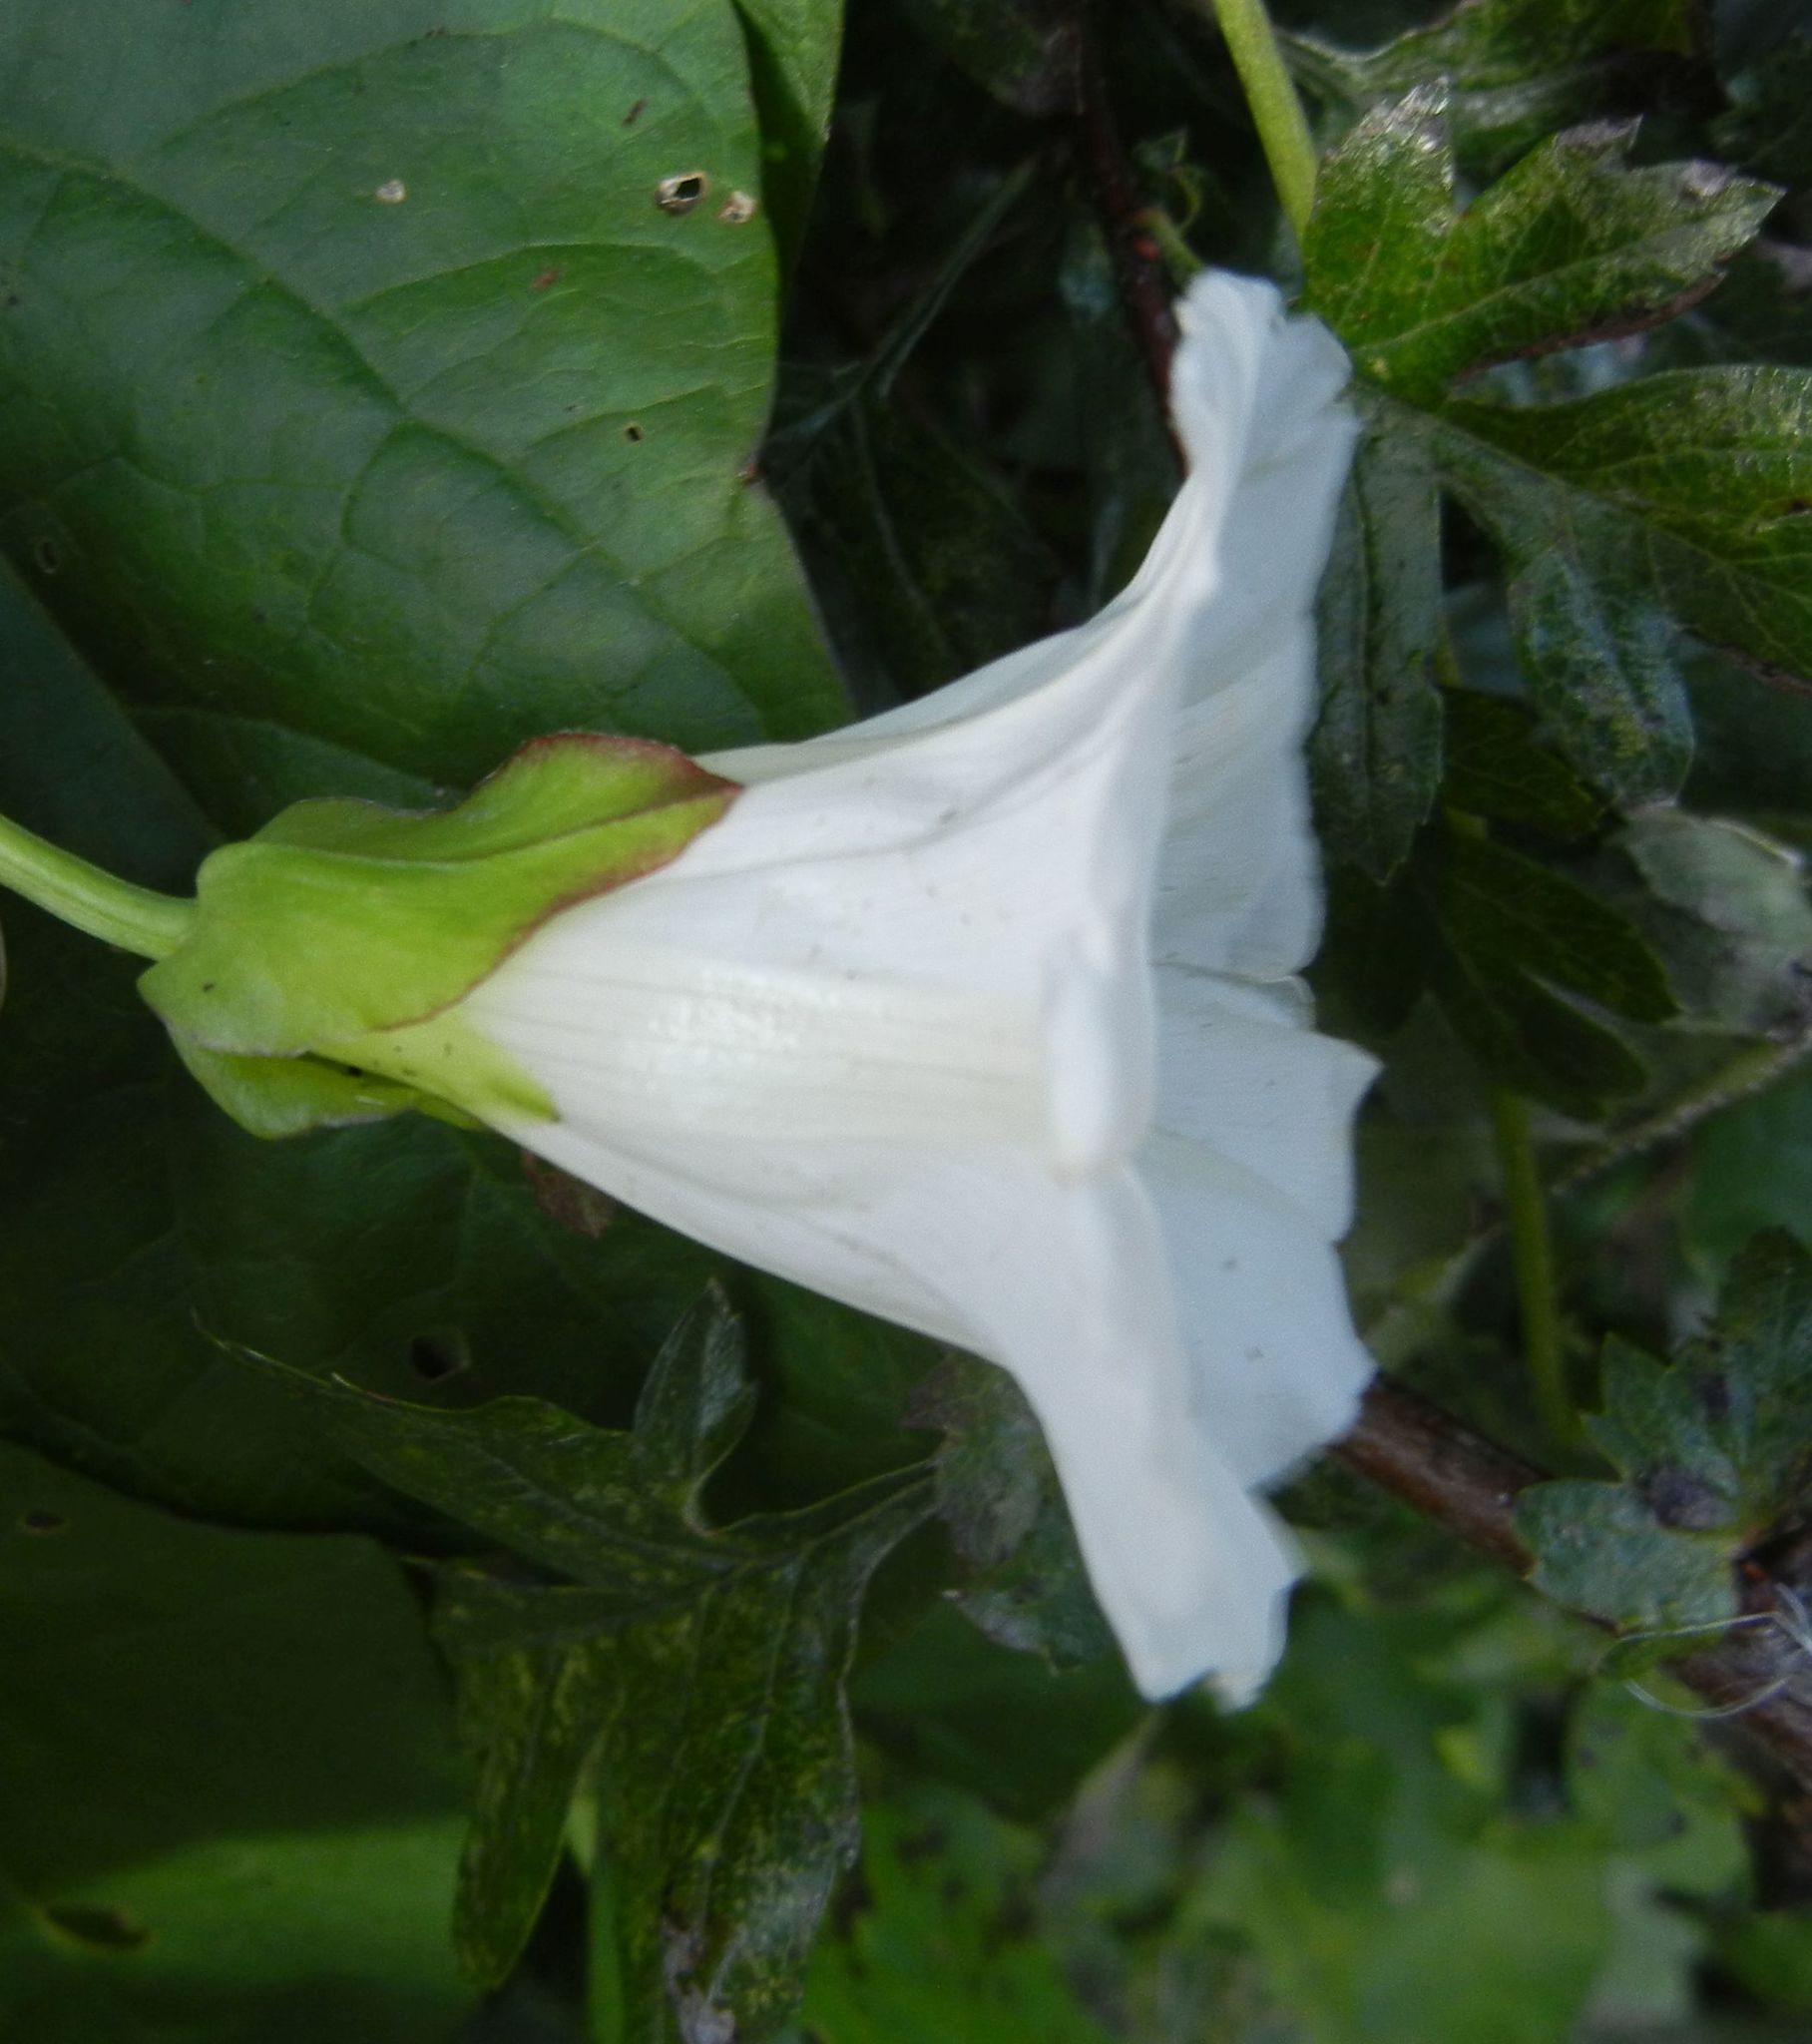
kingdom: Plantae
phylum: Tracheophyta
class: Magnoliopsida
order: Solanales
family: Convolvulaceae
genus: Calystegia
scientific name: Calystegia sepium
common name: Hedge bindweed
